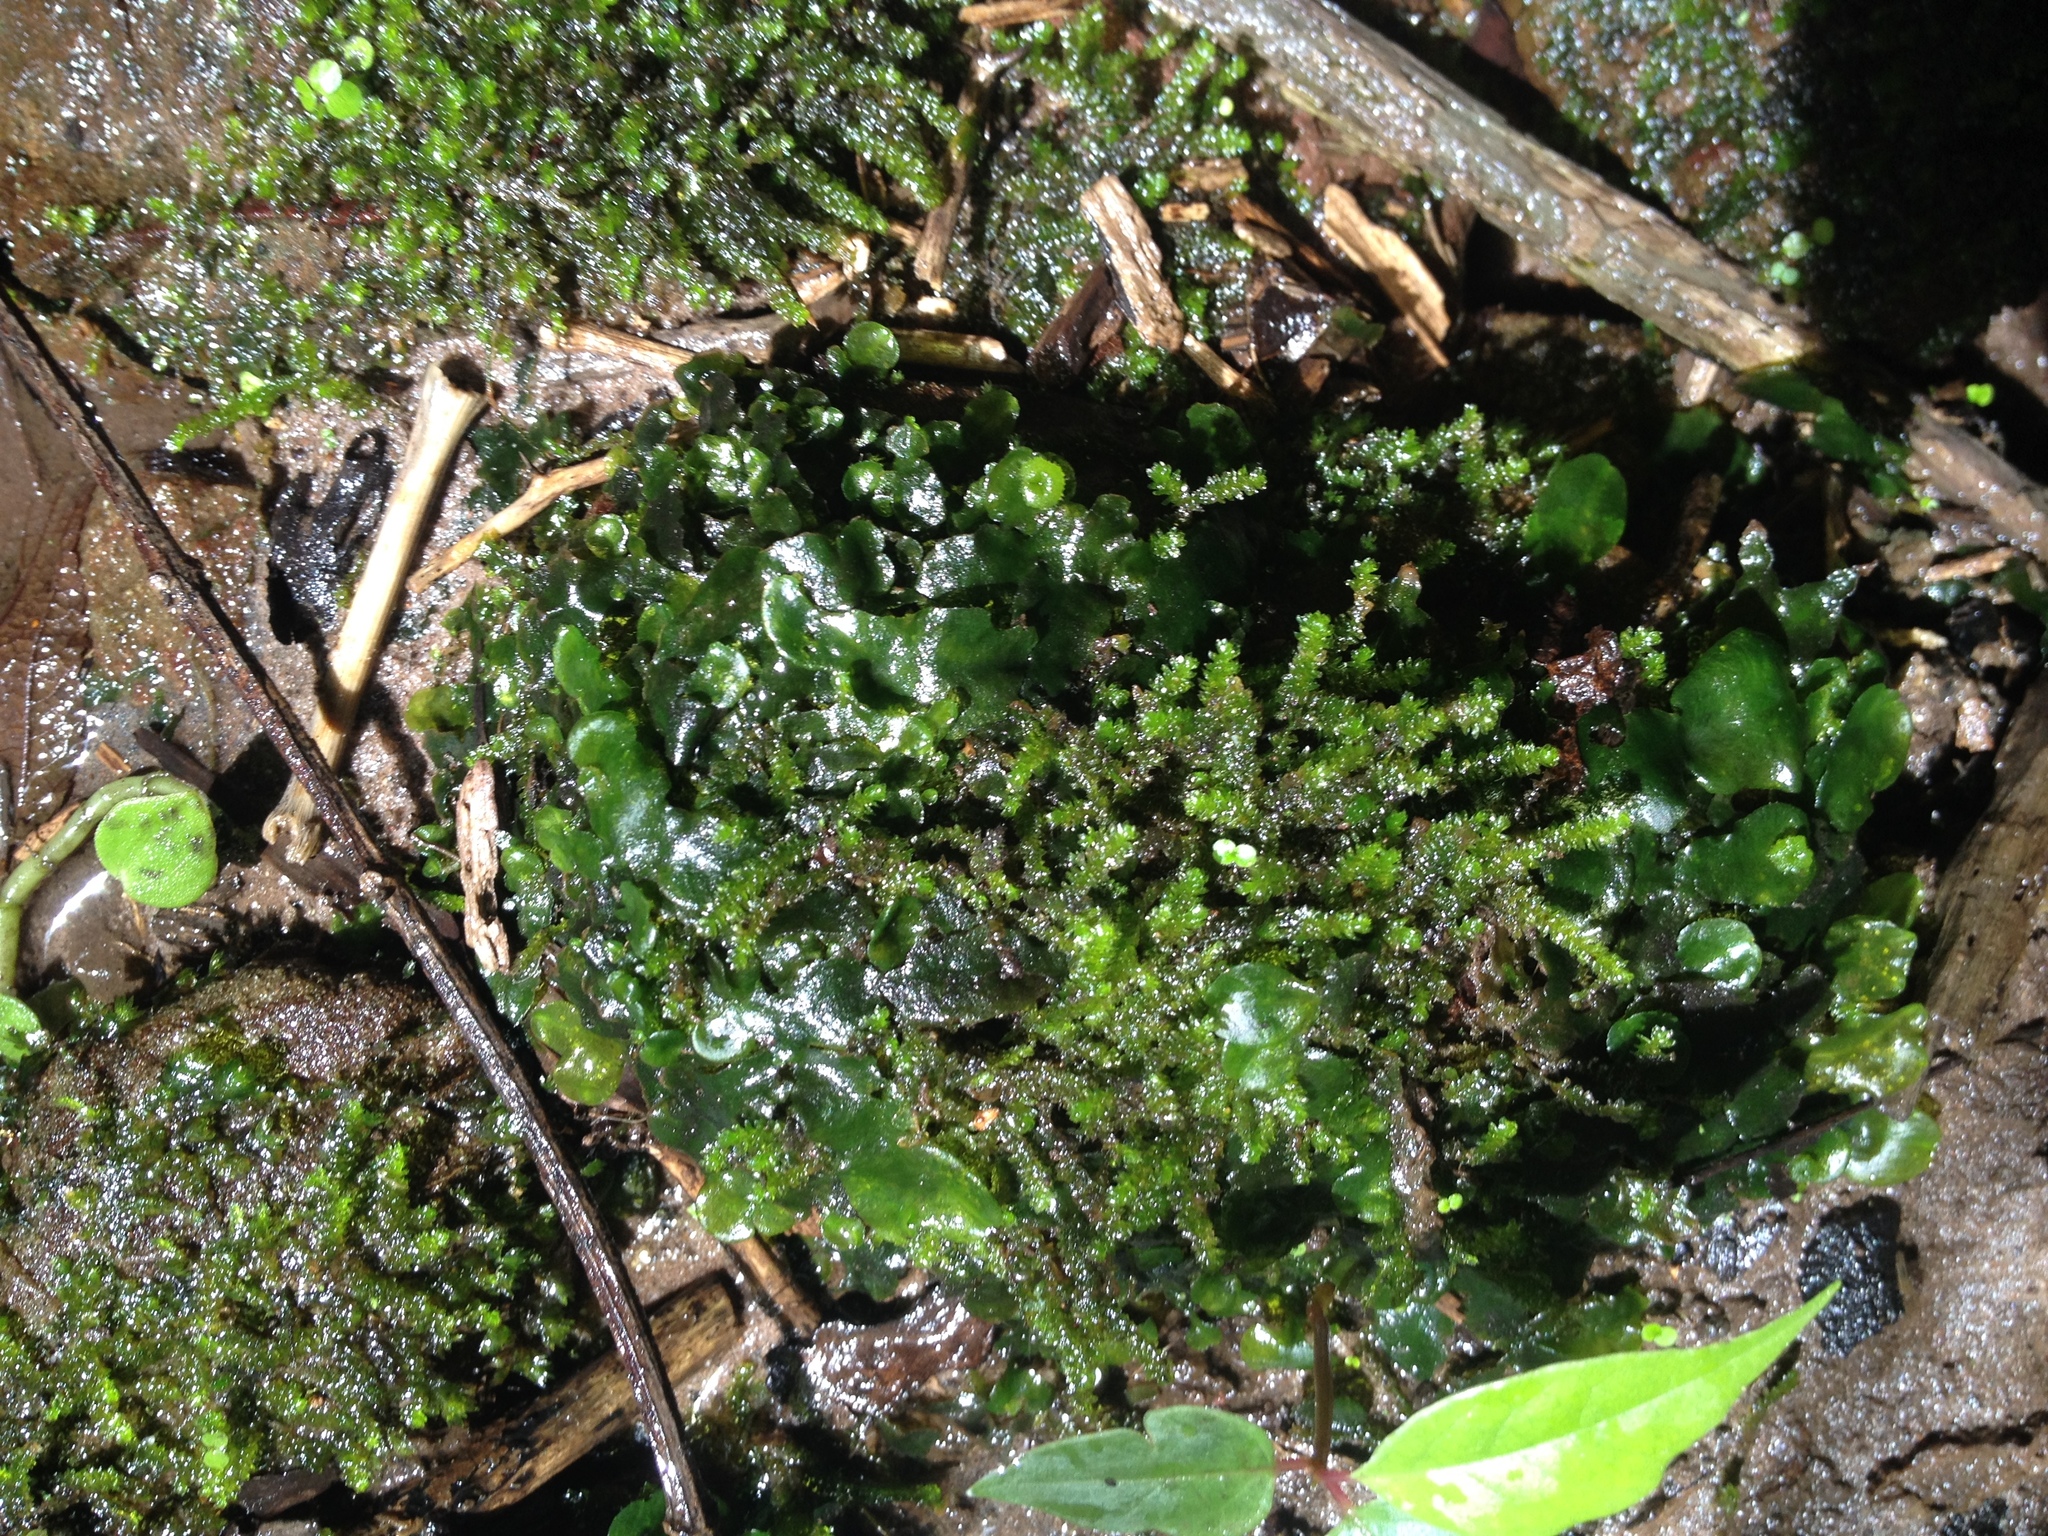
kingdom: Plantae
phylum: Marchantiophyta
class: Marchantiopsida
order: Marchantiales
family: Dumortieraceae
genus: Dumortiera
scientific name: Dumortiera hirsuta
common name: Dumortier's liverwort
